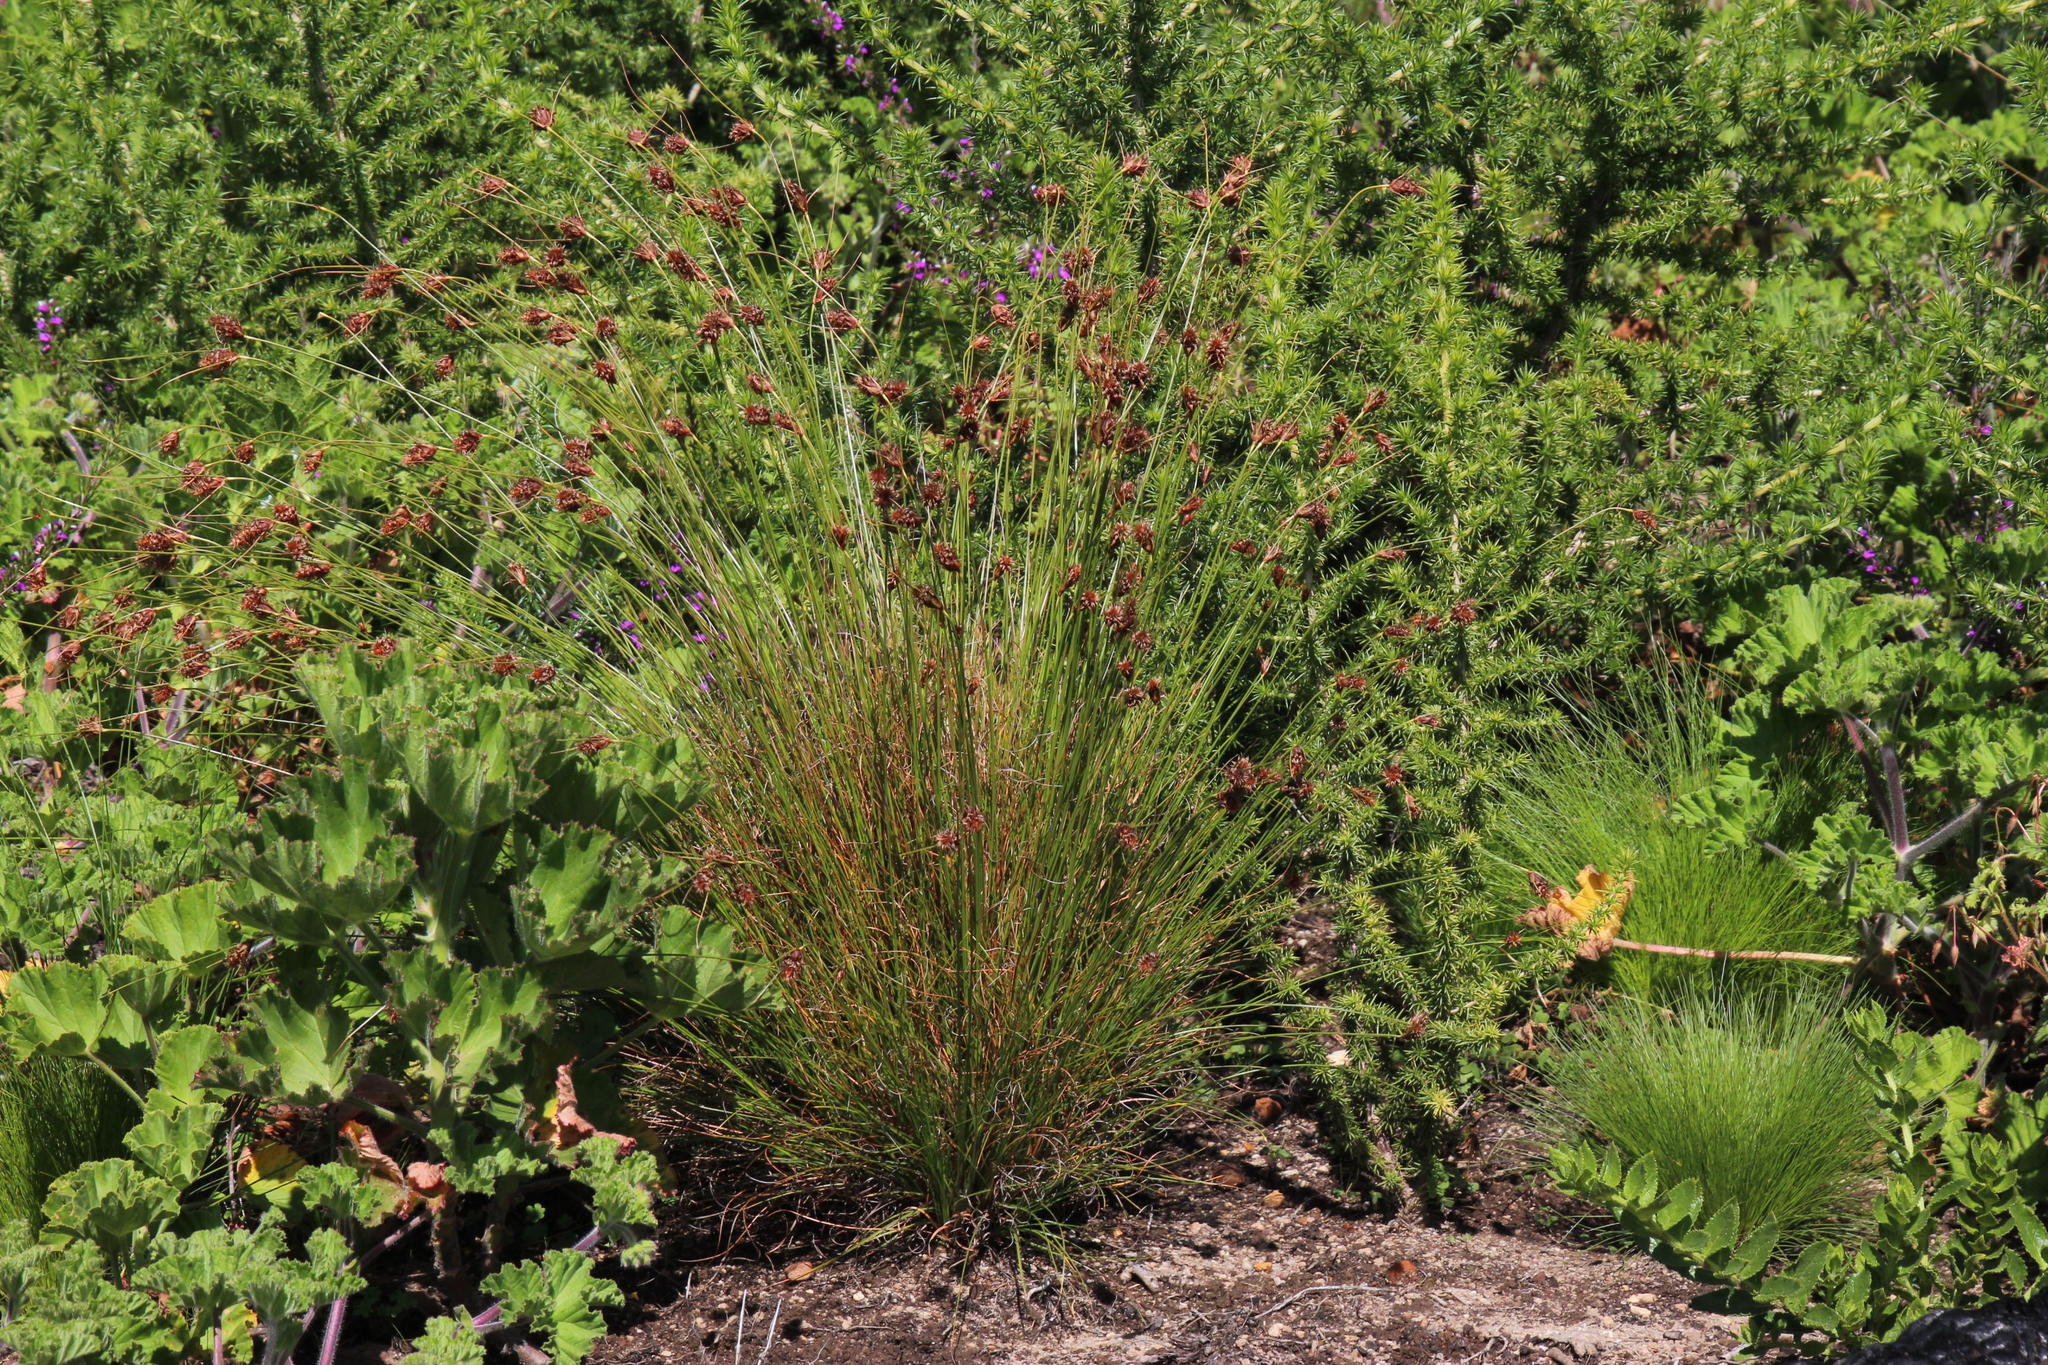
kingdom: Plantae
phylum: Tracheophyta
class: Liliopsida
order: Poales
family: Cyperaceae
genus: Ficinia
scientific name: Ficinia nigrescens
